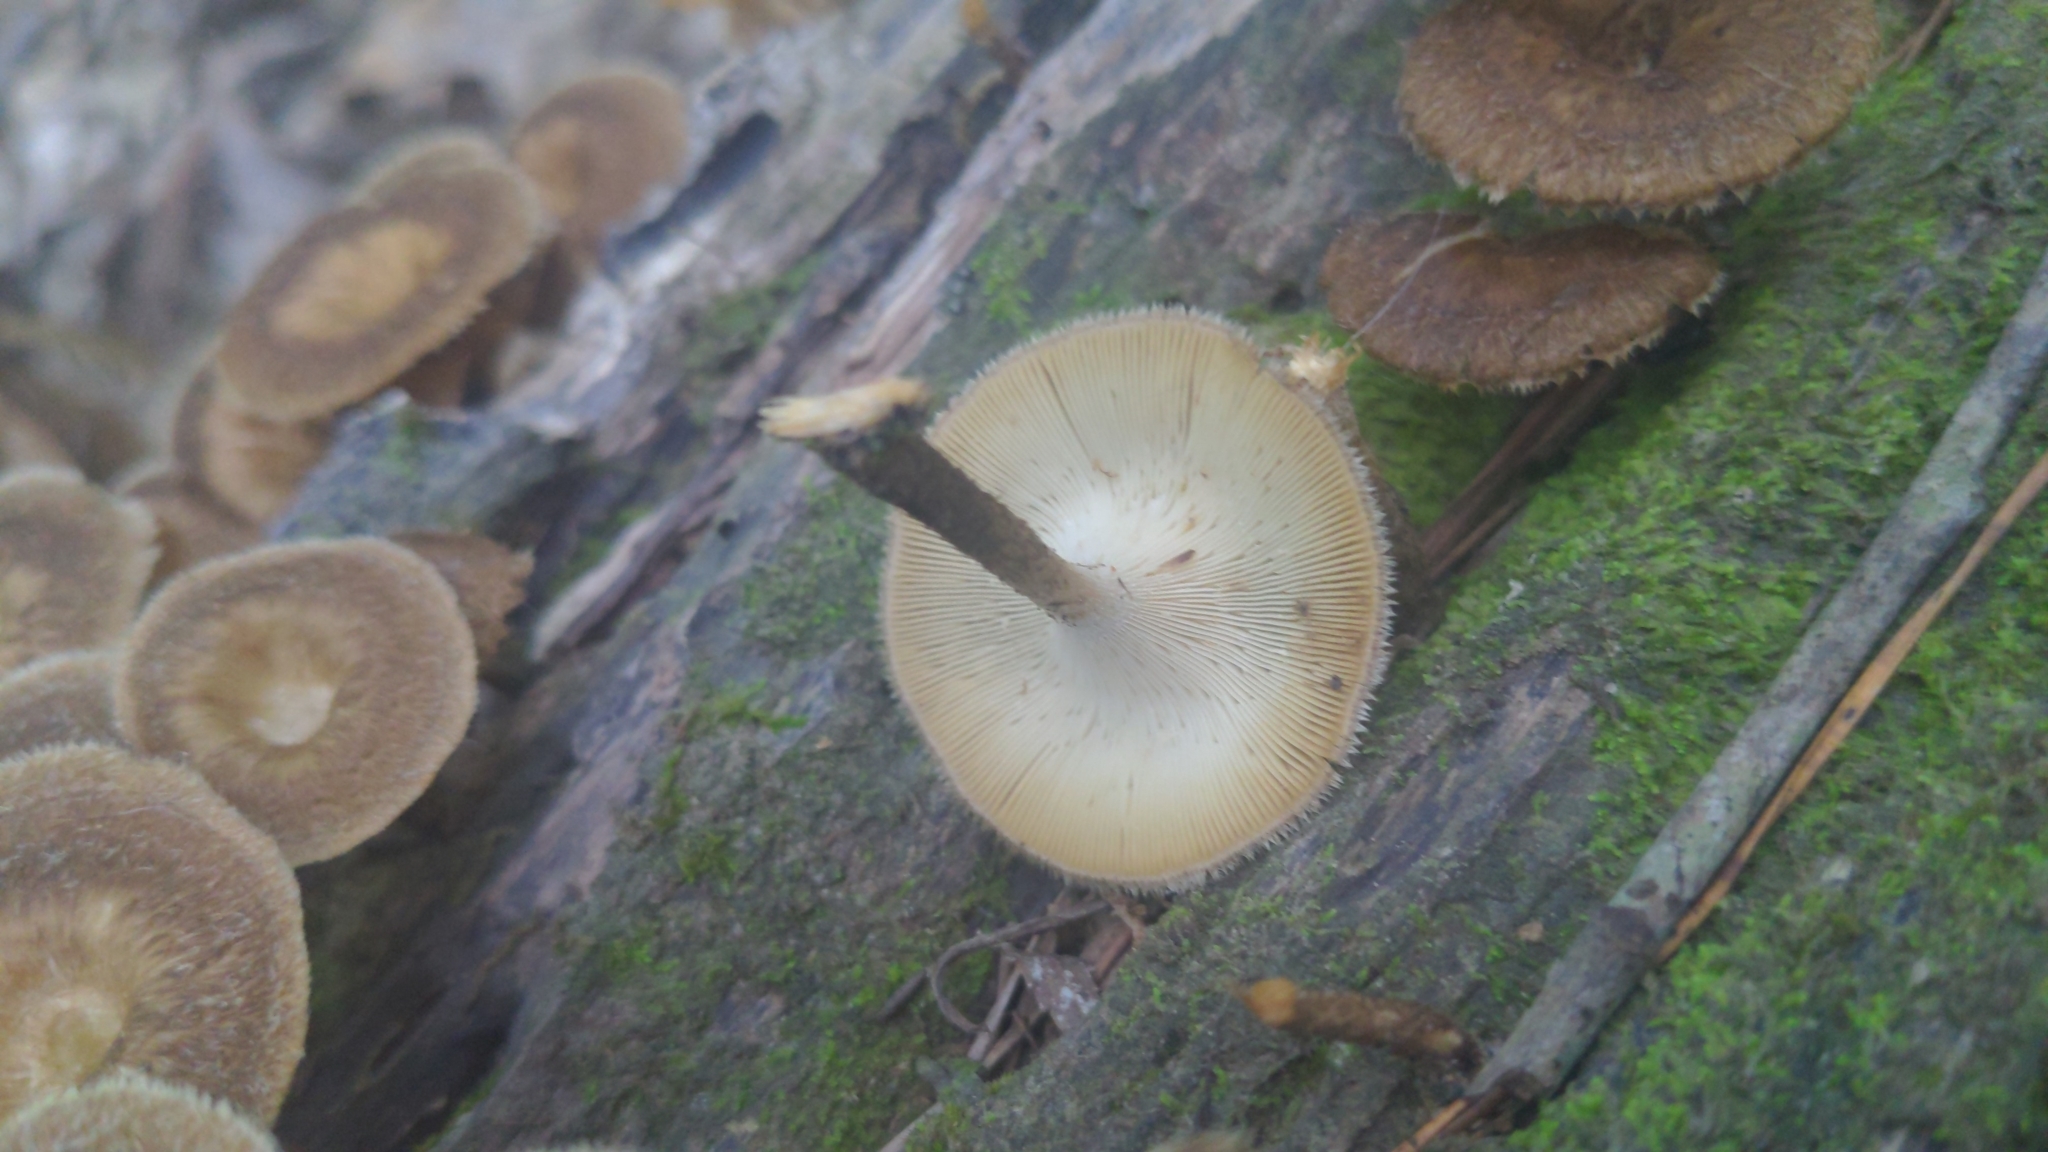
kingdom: Fungi
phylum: Basidiomycota
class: Agaricomycetes
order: Polyporales
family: Polyporaceae
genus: Lentinus
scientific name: Lentinus crinitus
